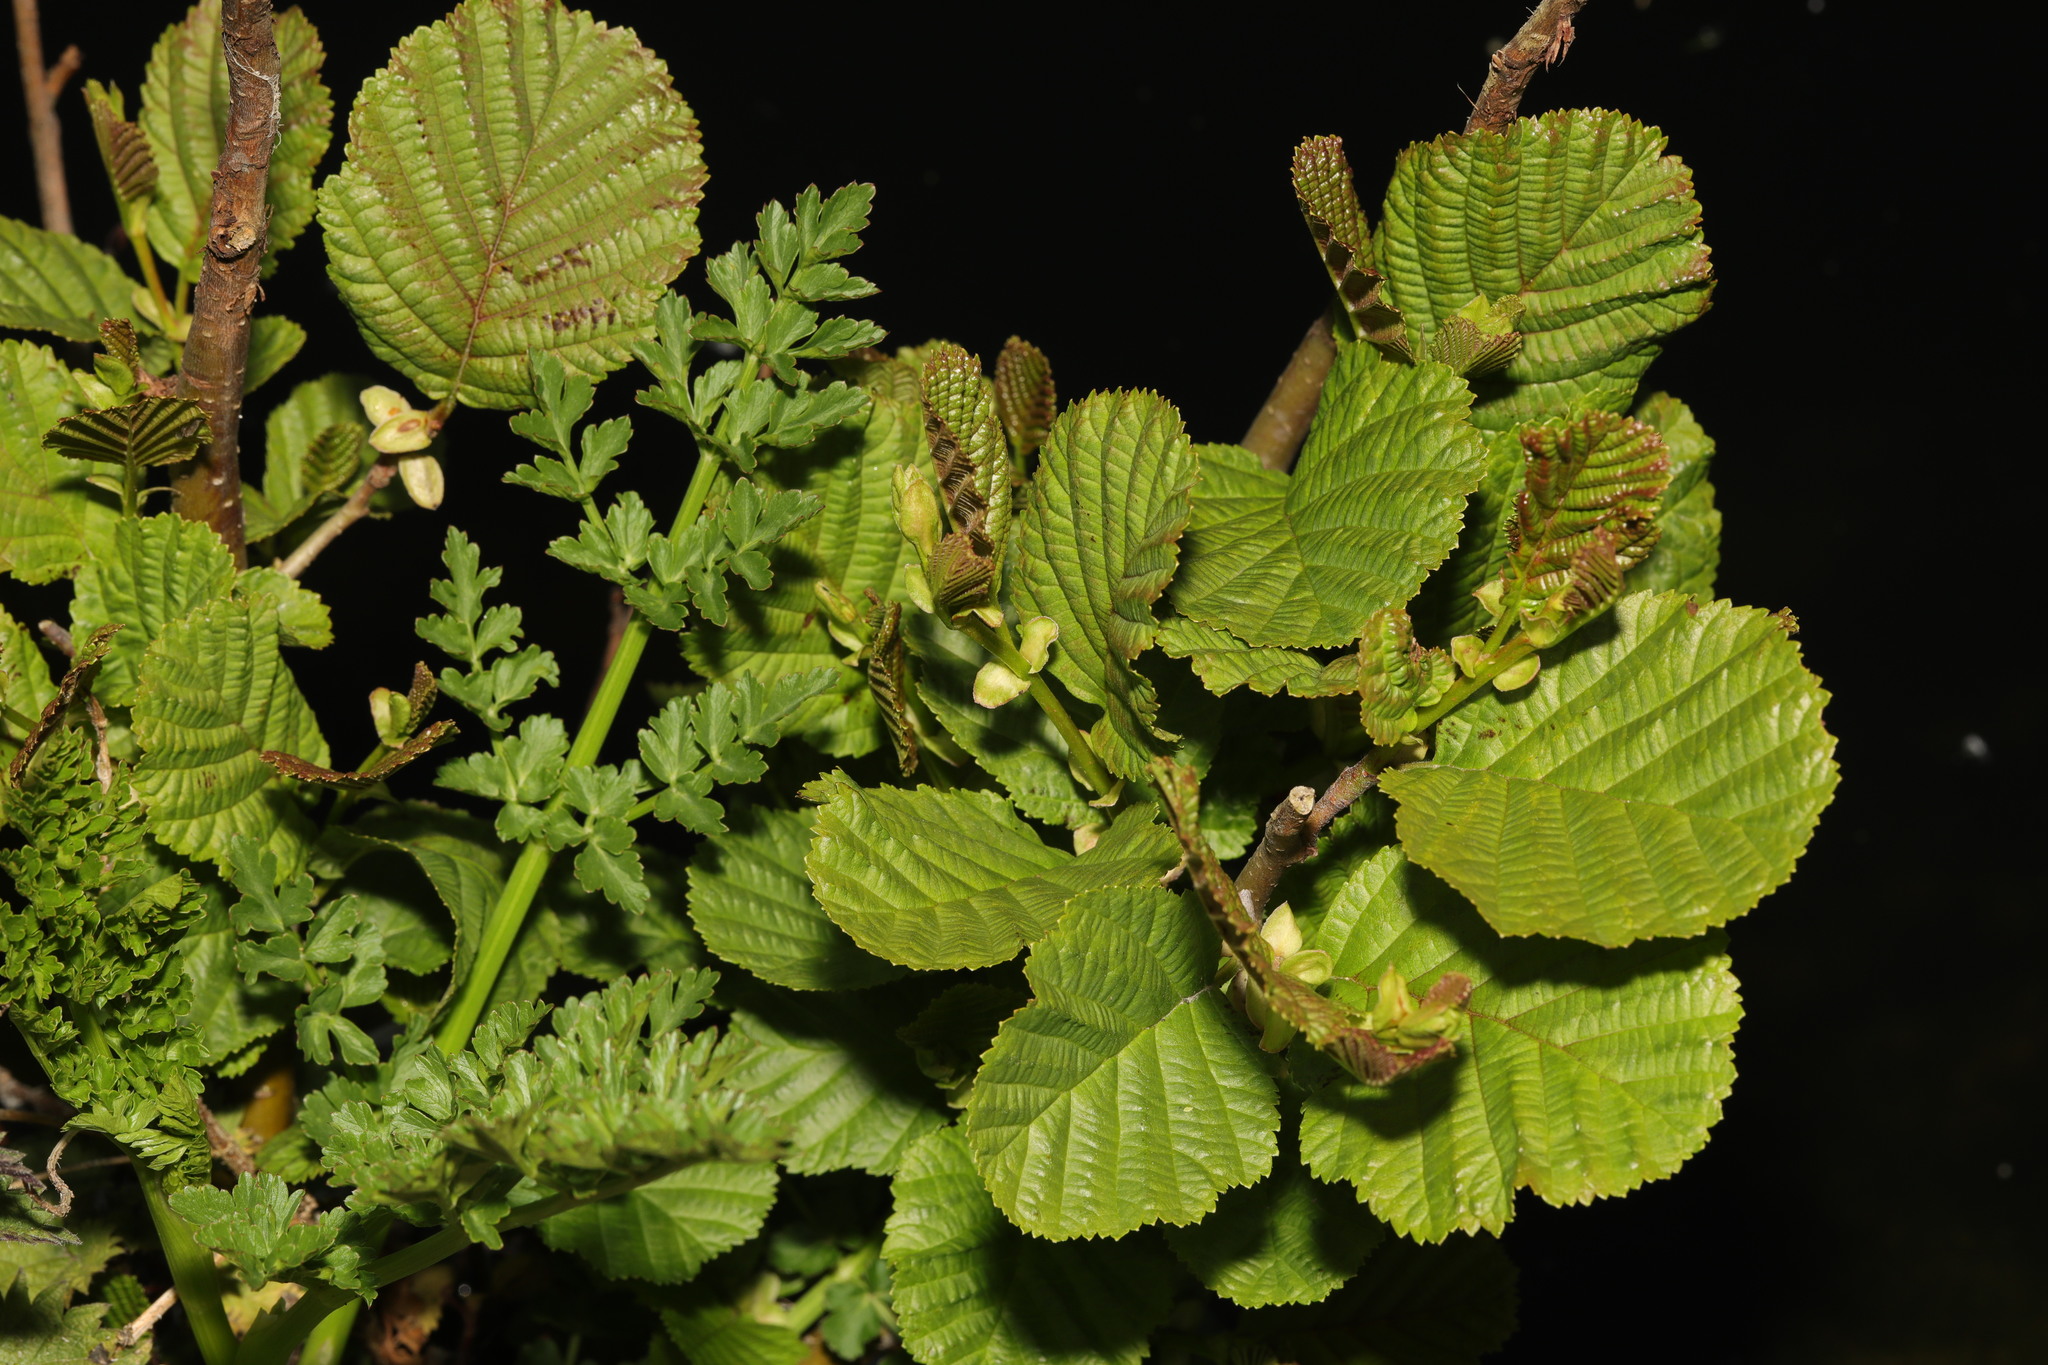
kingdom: Plantae
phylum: Tracheophyta
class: Magnoliopsida
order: Fagales
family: Betulaceae
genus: Alnus
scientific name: Alnus glutinosa
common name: Black alder
